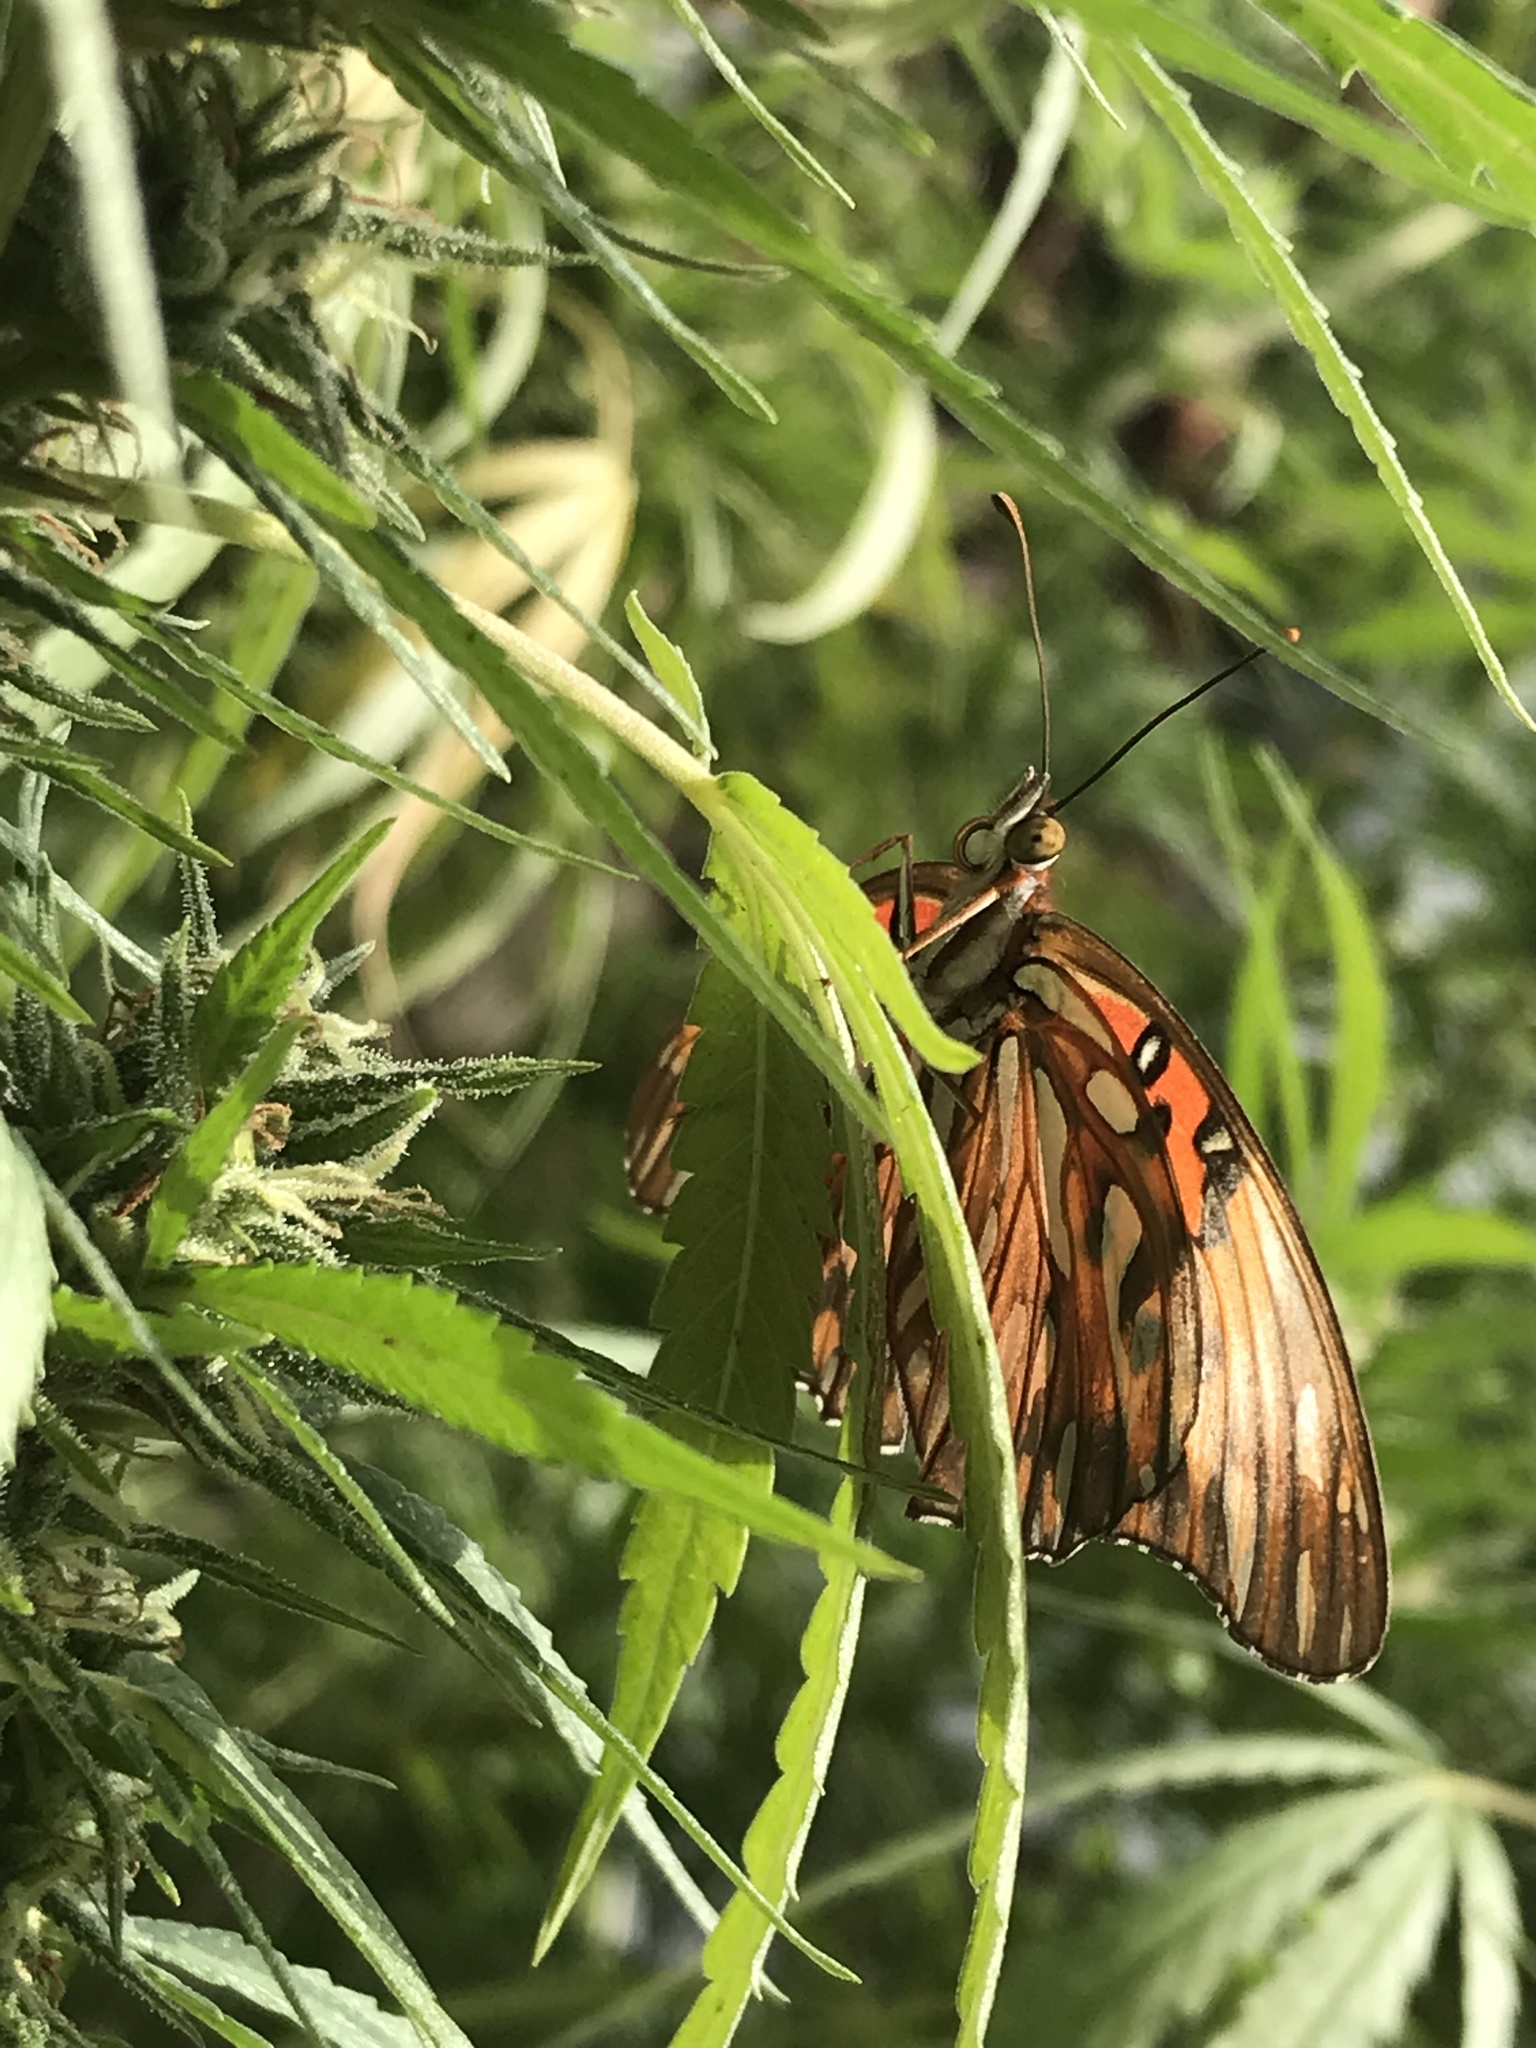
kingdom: Animalia
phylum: Arthropoda
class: Insecta
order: Lepidoptera
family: Nymphalidae
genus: Dione
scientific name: Dione vanillae
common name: Gulf fritillary
